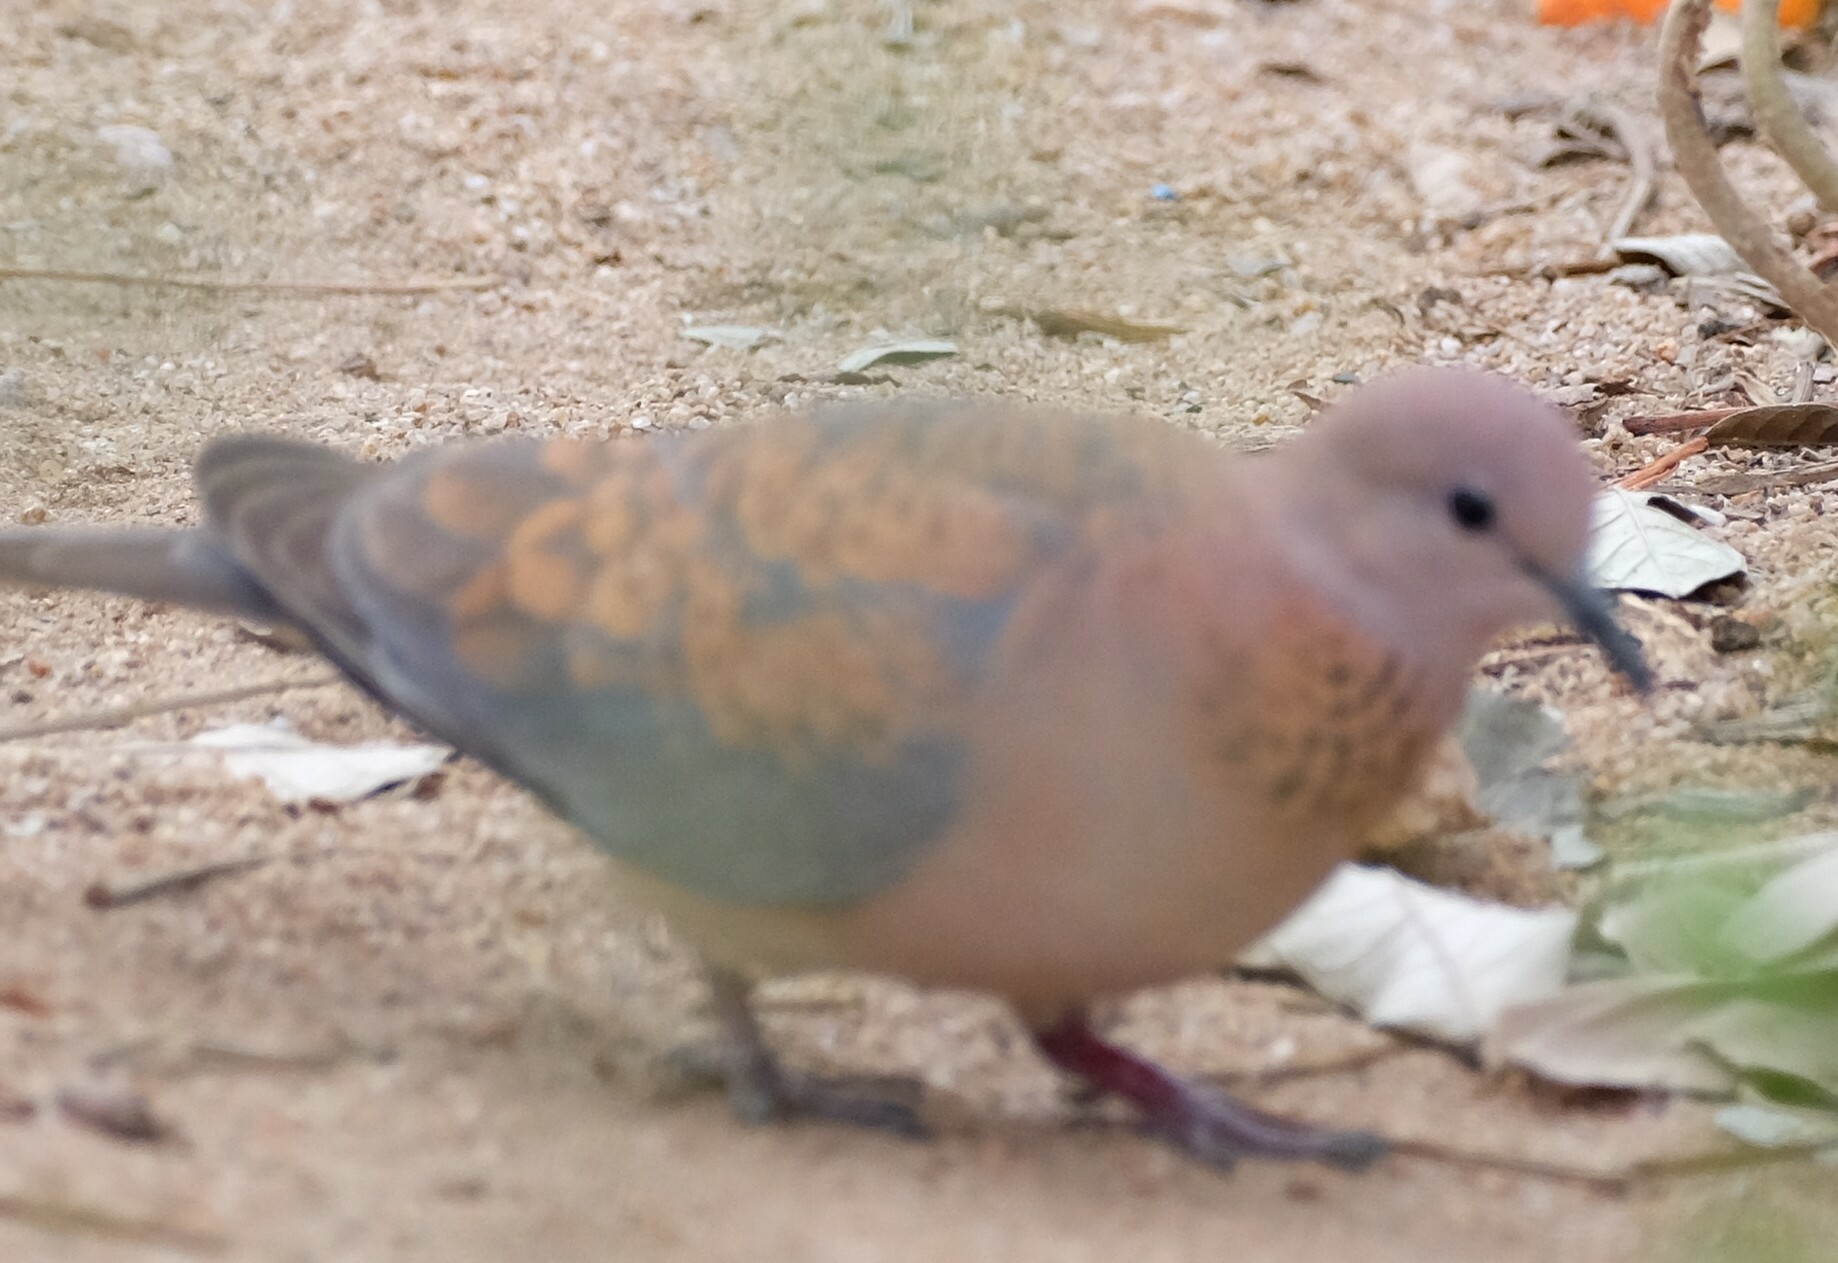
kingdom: Animalia
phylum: Chordata
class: Aves
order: Columbiformes
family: Columbidae
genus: Spilopelia
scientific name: Spilopelia senegalensis
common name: Laughing dove
